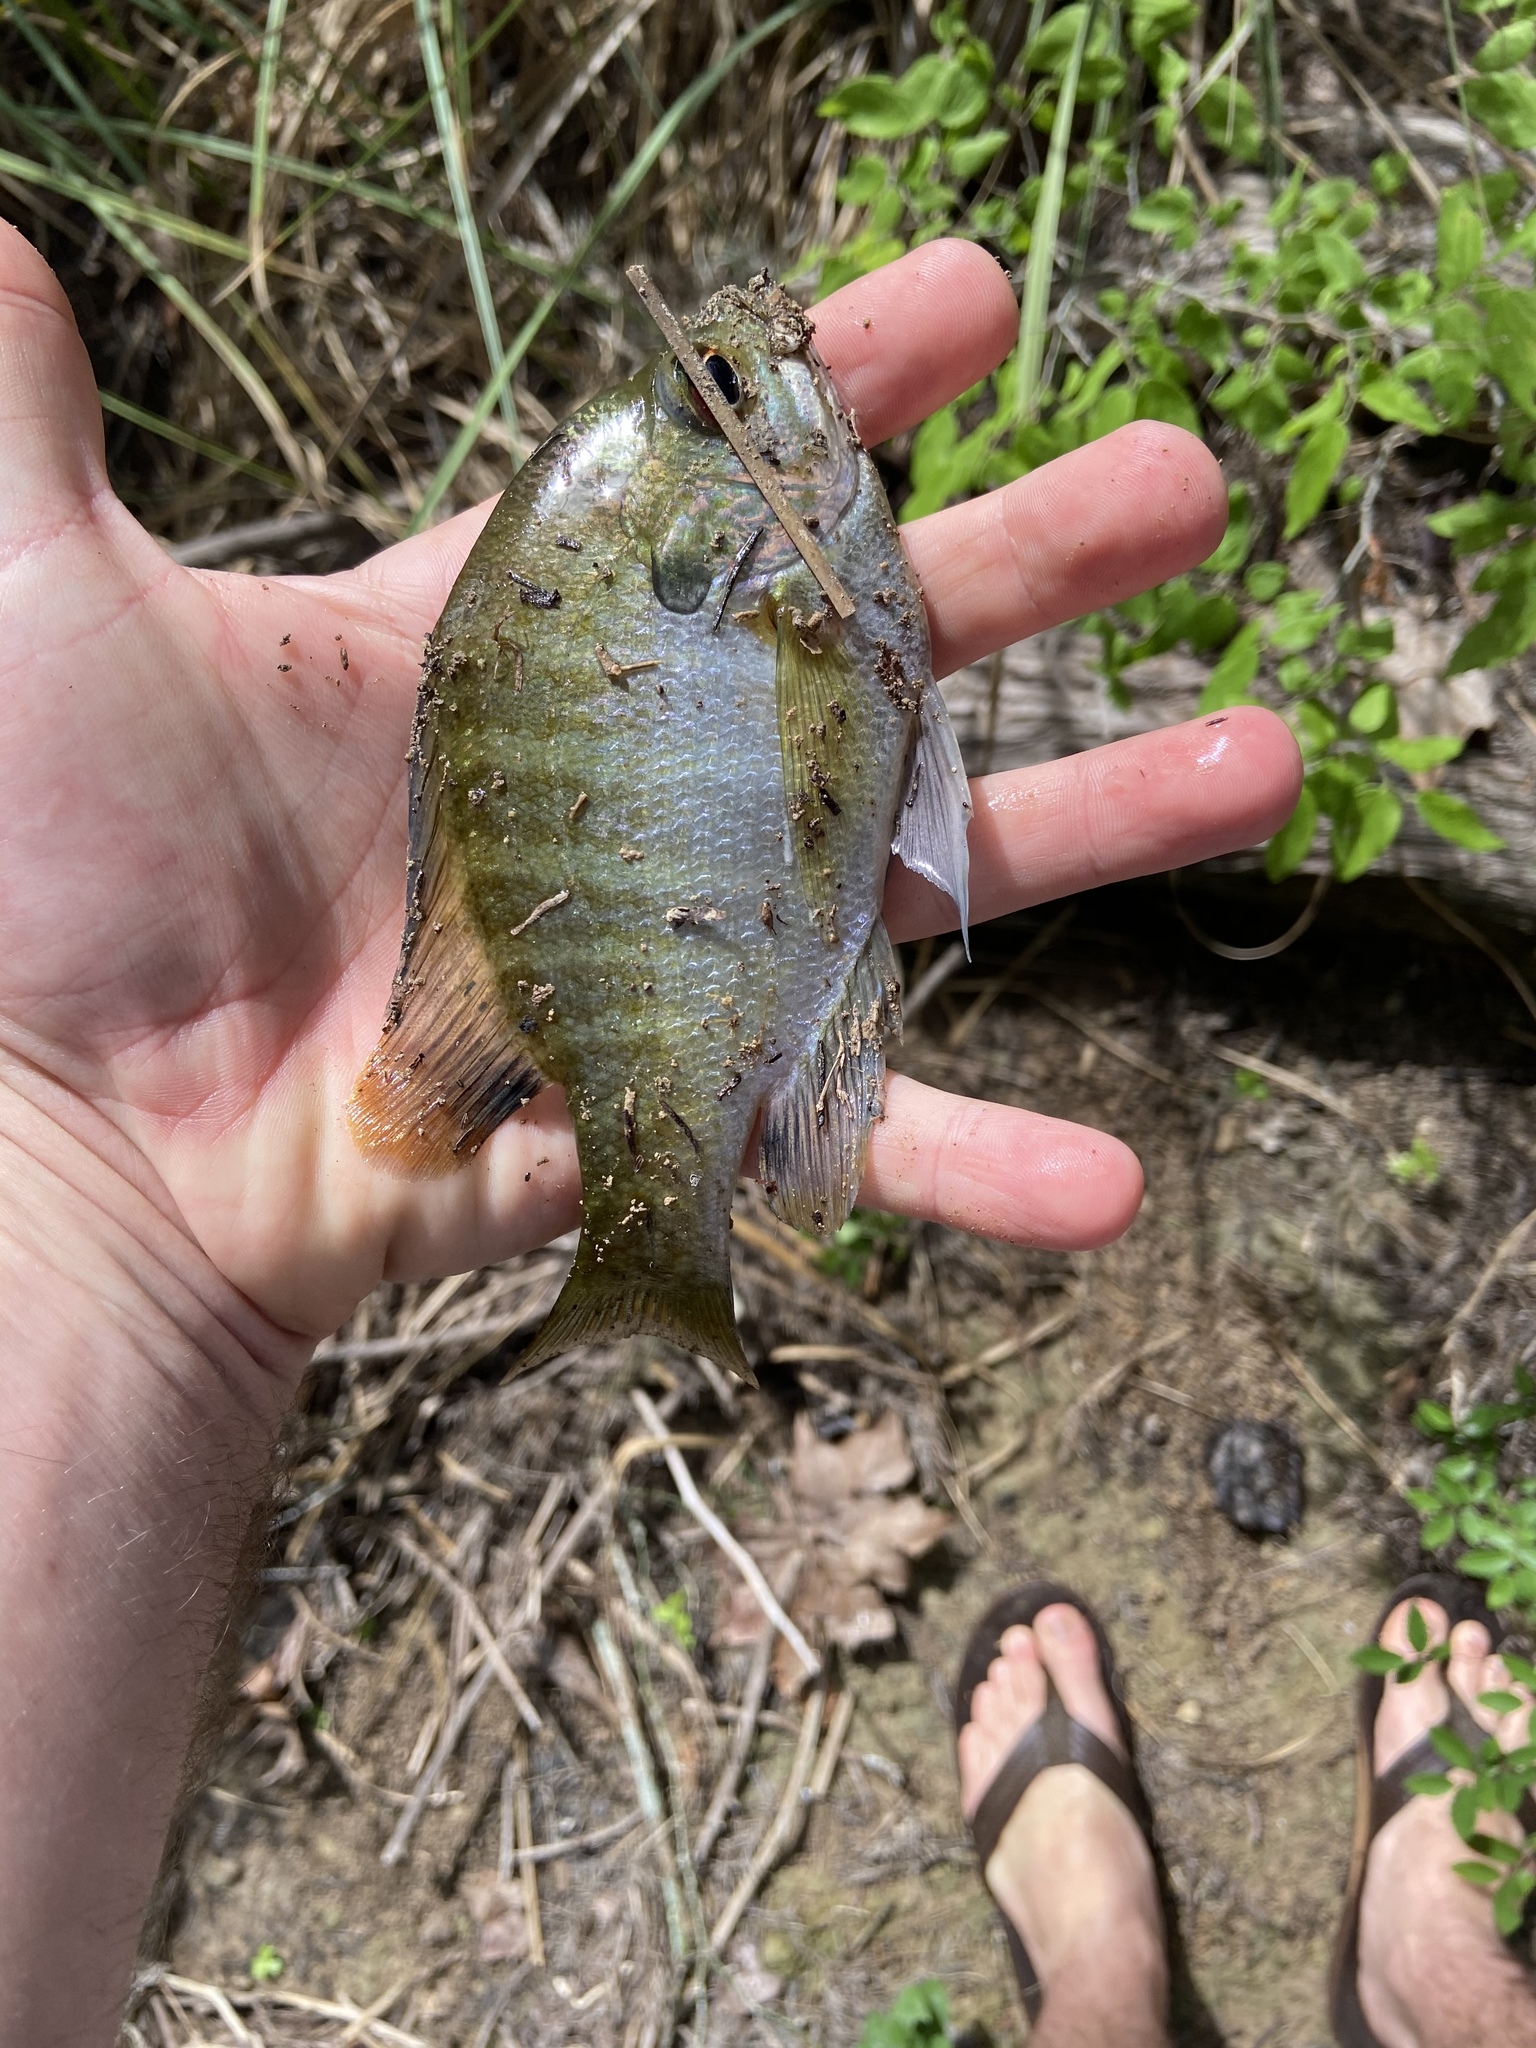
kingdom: Animalia
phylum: Chordata
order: Perciformes
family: Centrarchidae
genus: Lepomis
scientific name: Lepomis macrochirus
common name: Bluegill
